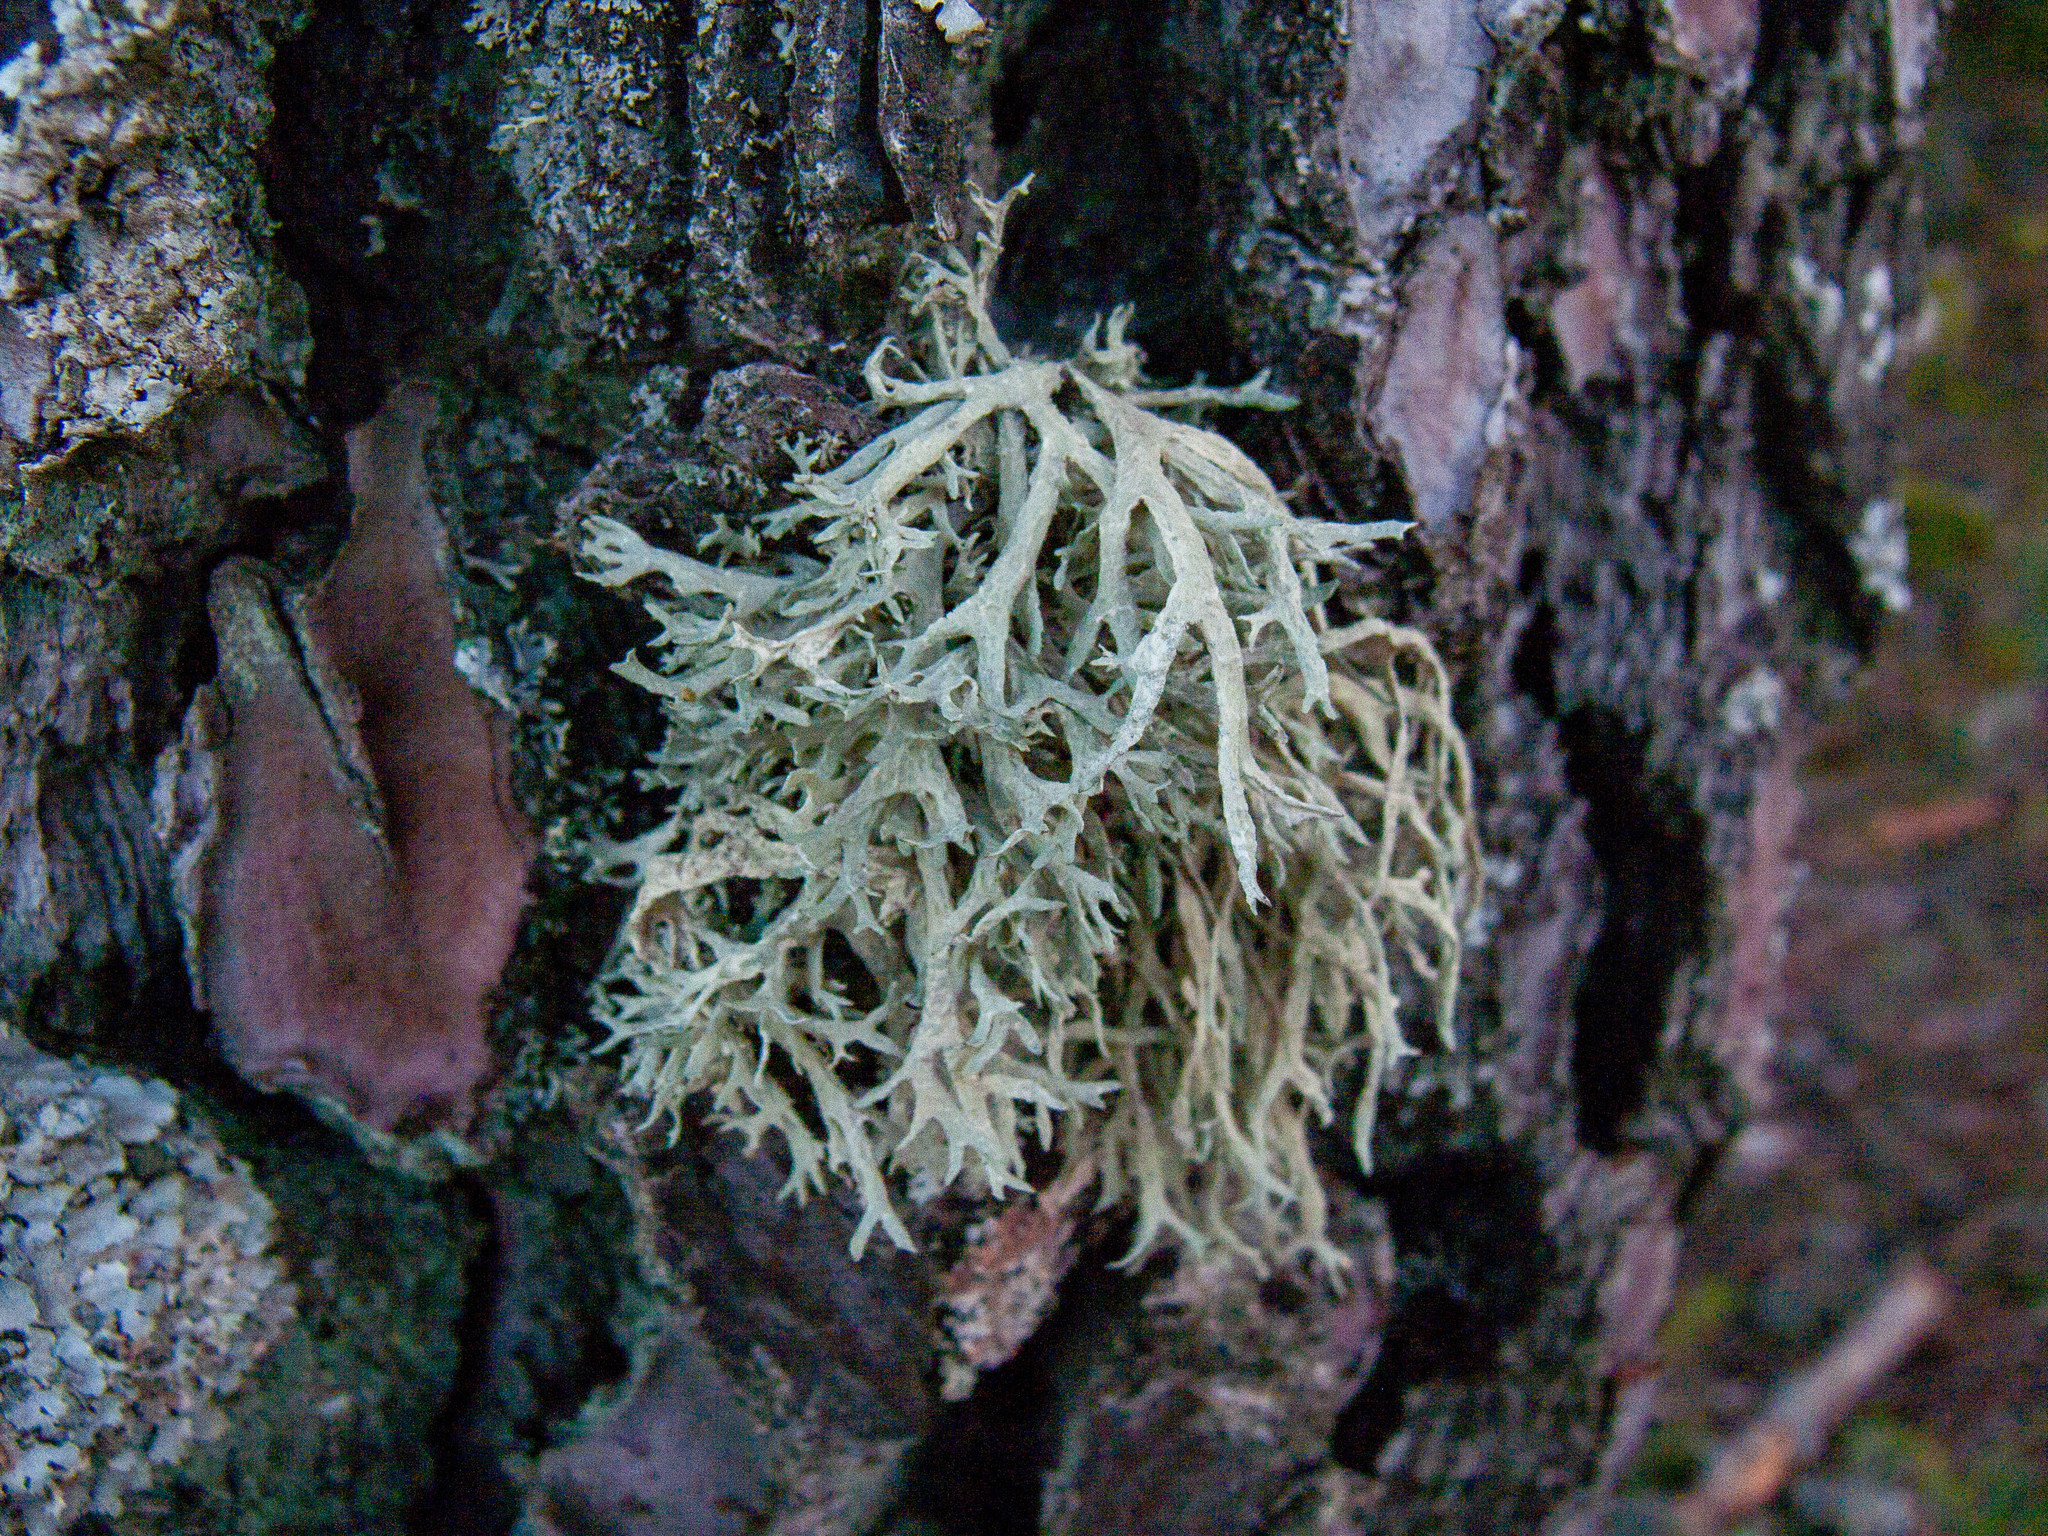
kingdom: Fungi
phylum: Ascomycota
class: Lecanoromycetes
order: Lecanorales
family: Parmeliaceae
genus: Evernia
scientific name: Evernia prunastri
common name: Oak moss
